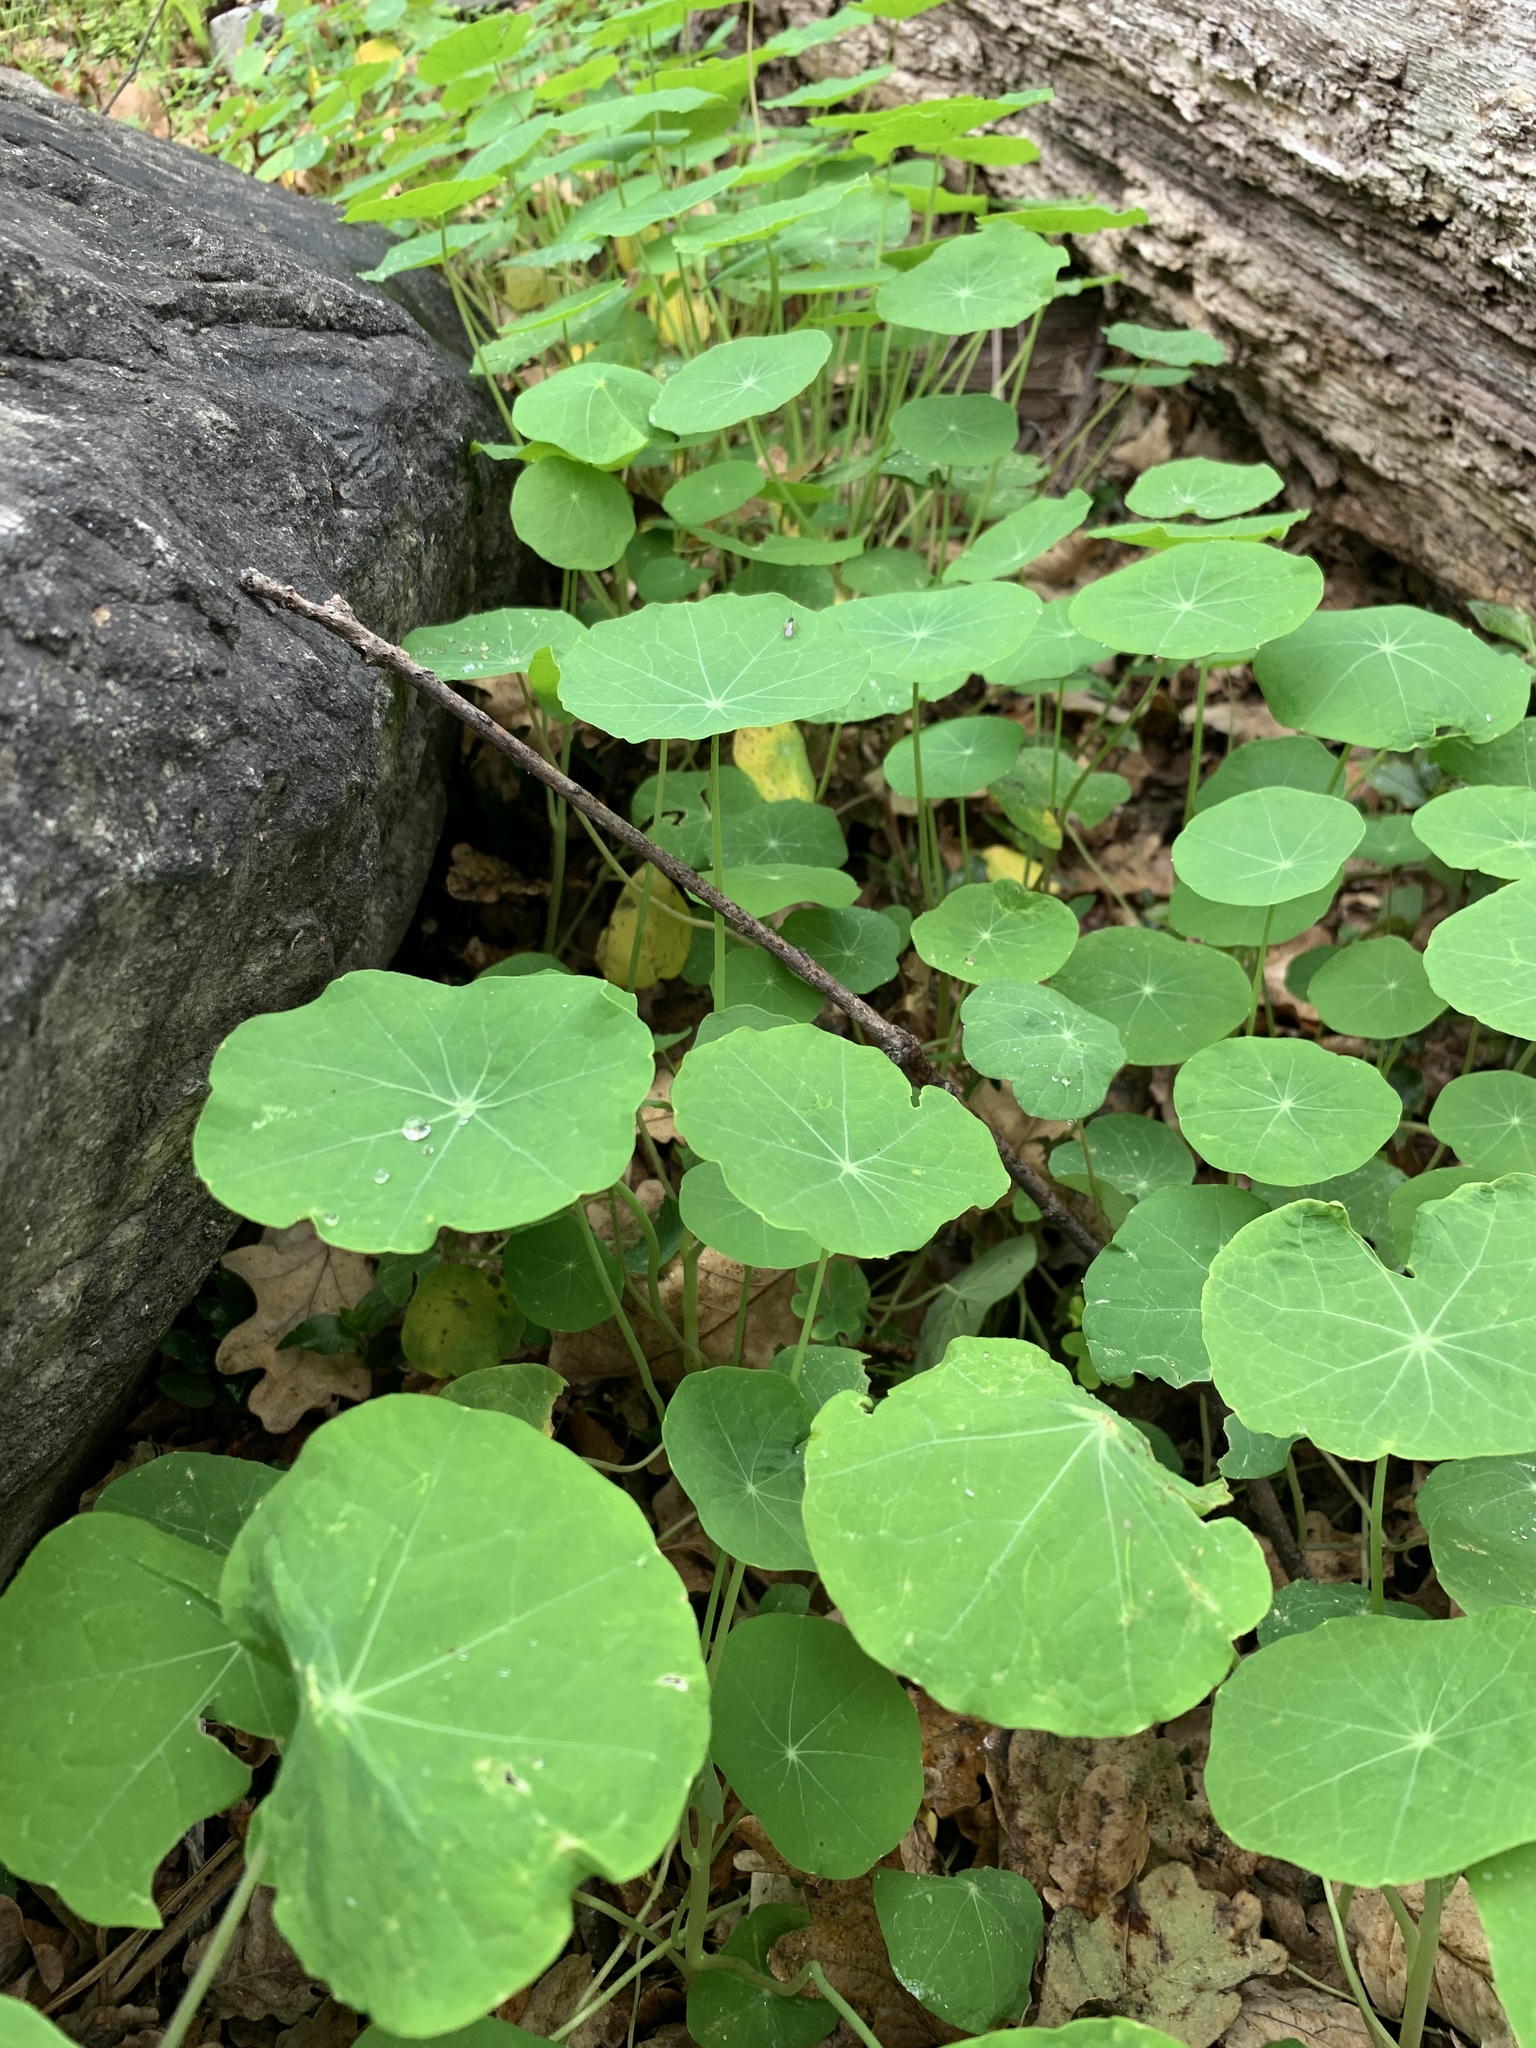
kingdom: Plantae
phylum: Tracheophyta
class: Magnoliopsida
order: Brassicales
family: Tropaeolaceae
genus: Tropaeolum
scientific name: Tropaeolum majus
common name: Nasturtium
